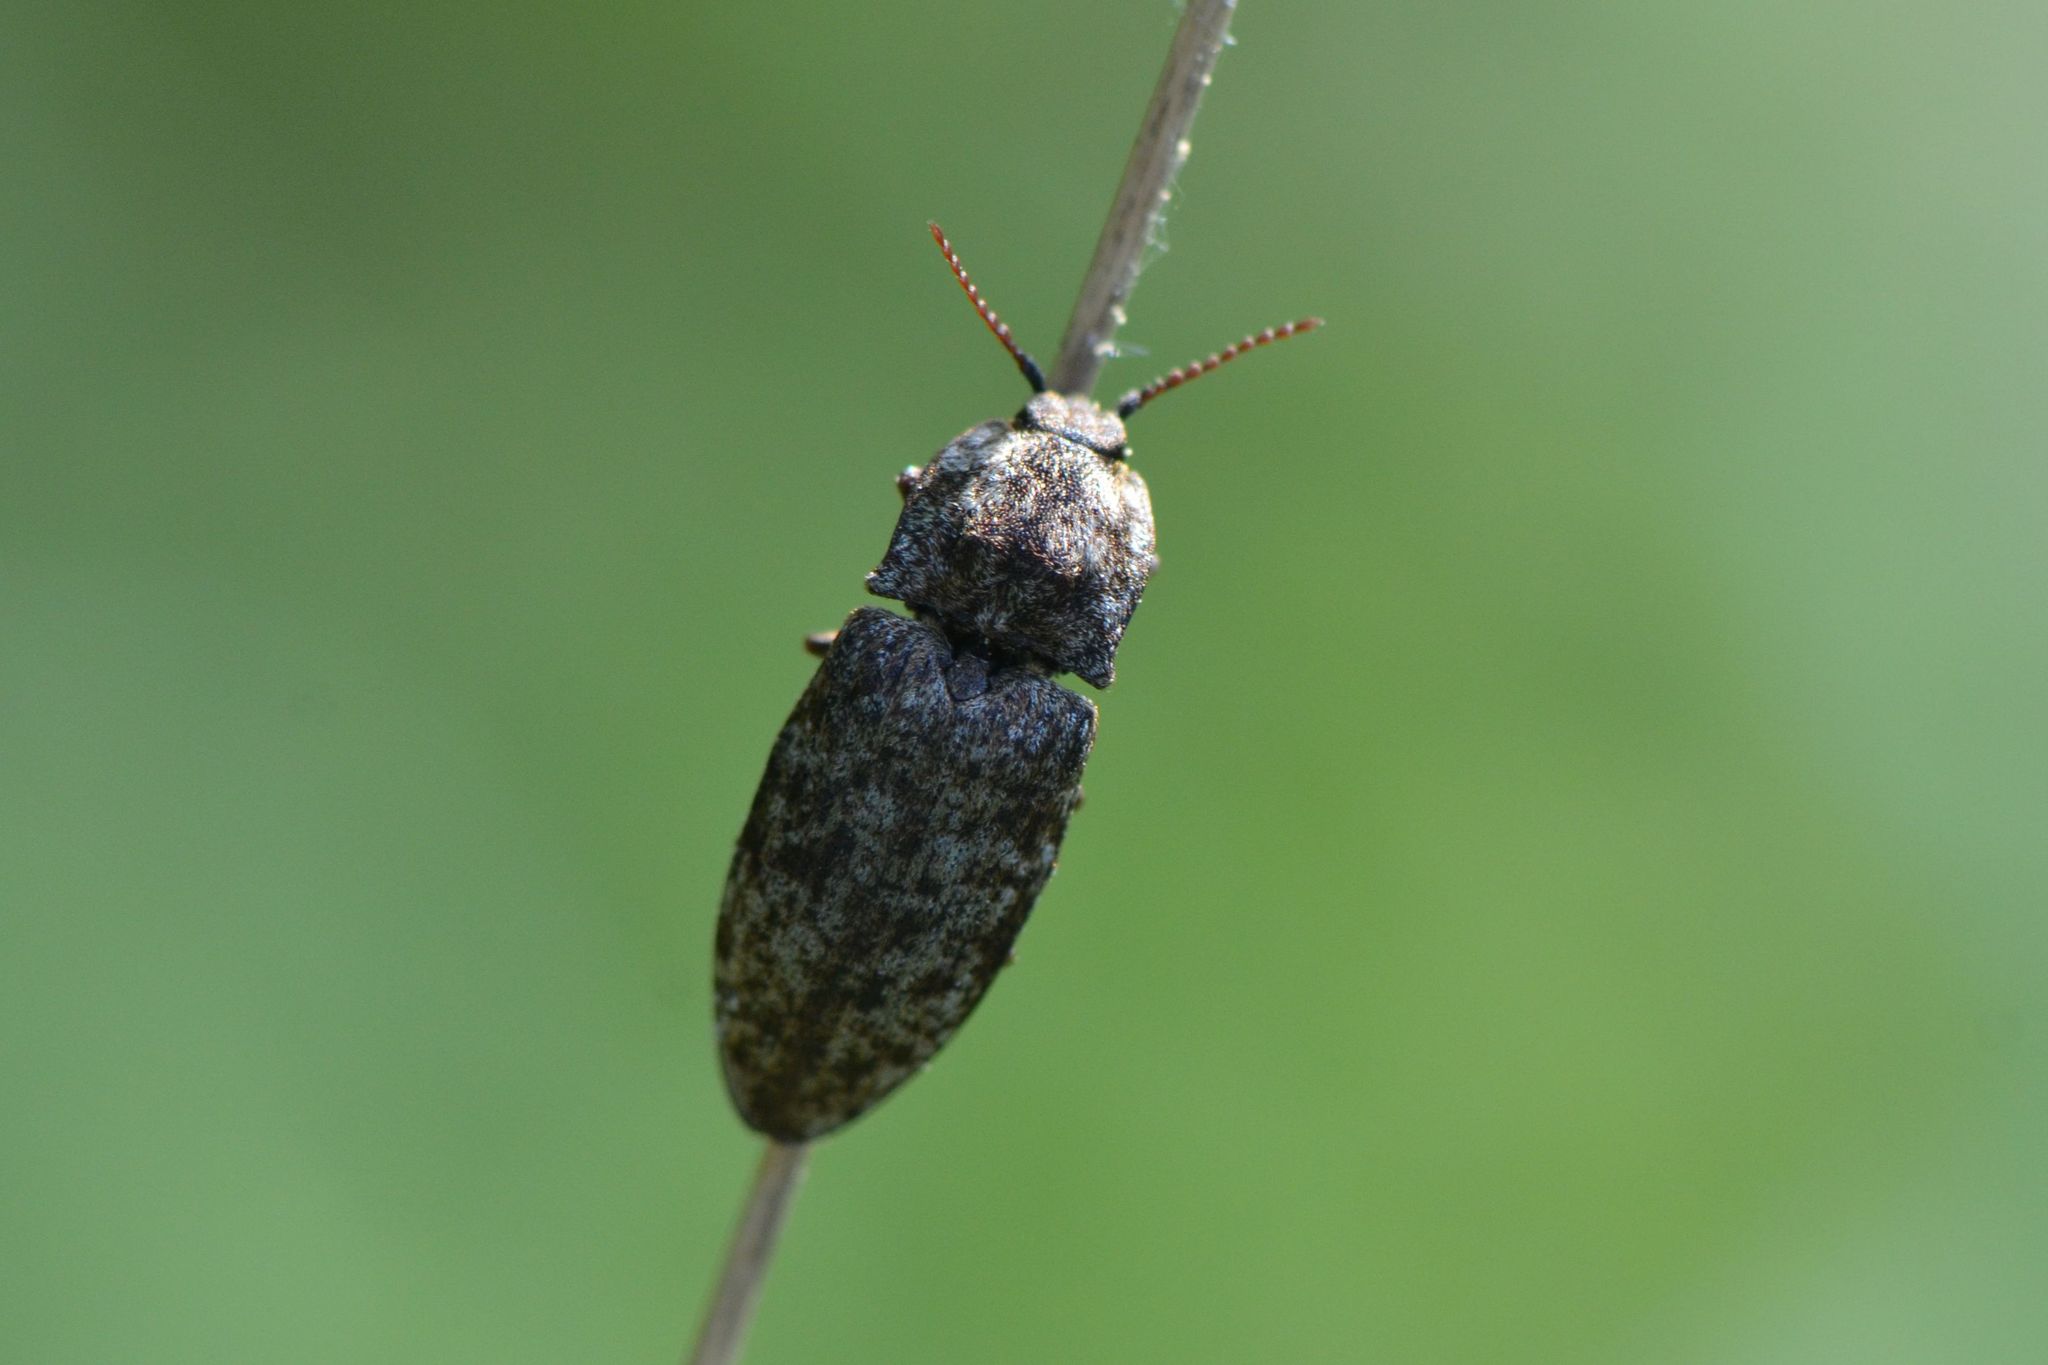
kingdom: Animalia
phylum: Arthropoda
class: Insecta
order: Coleoptera
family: Elateridae
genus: Agrypnus
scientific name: Agrypnus murinus
